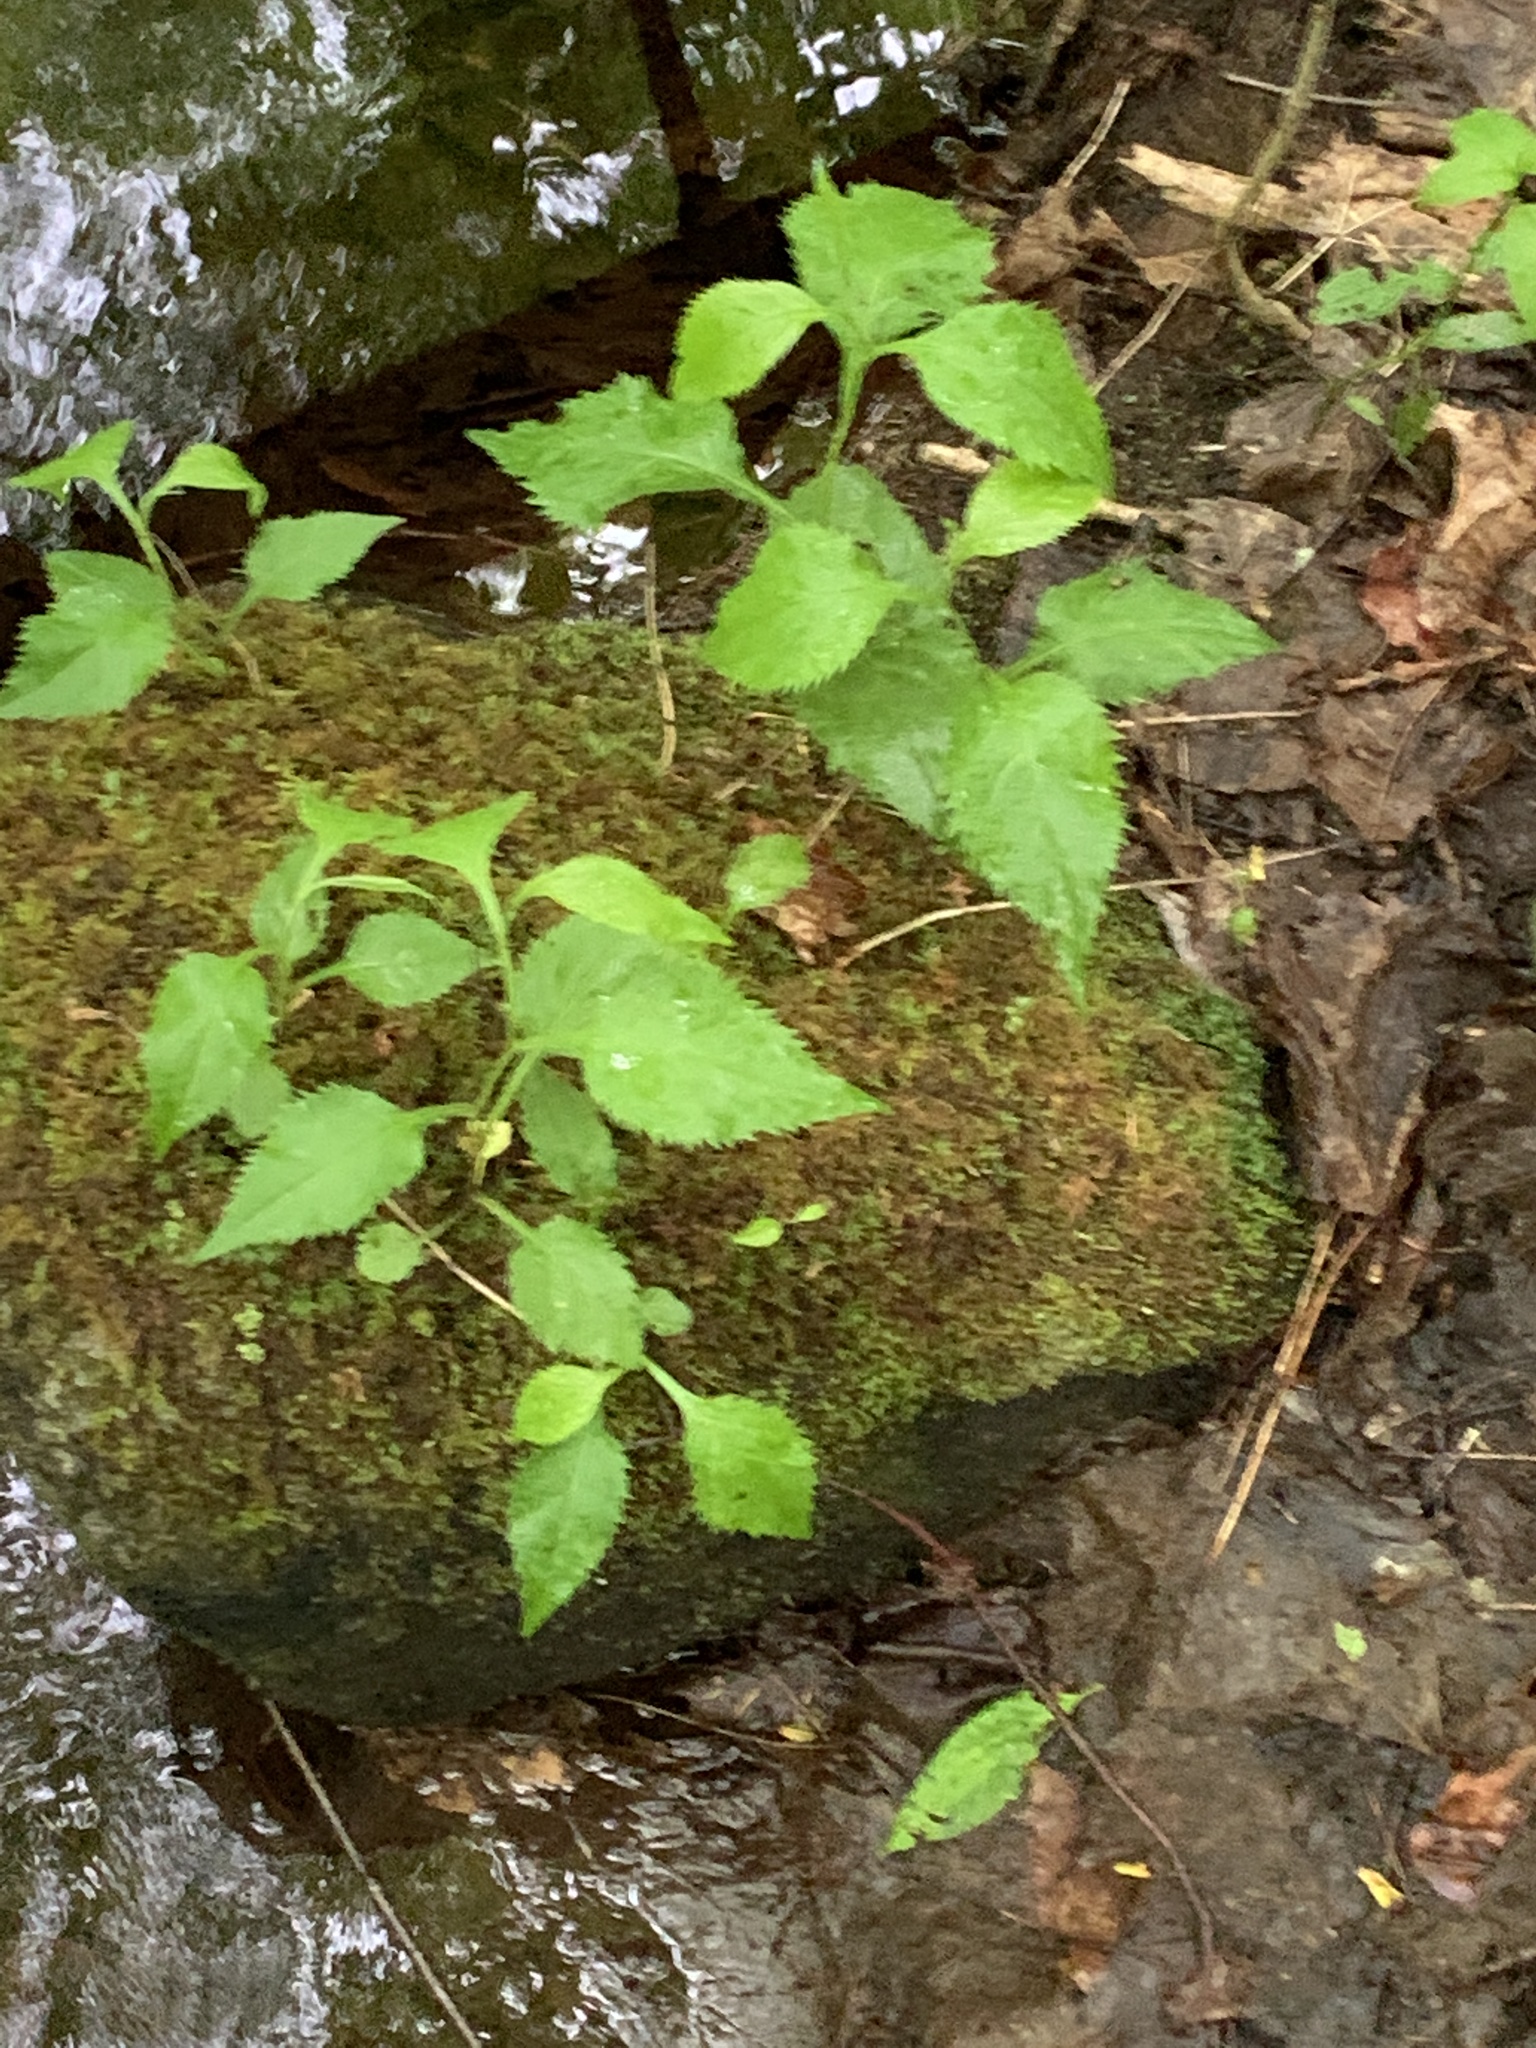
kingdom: Plantae
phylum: Tracheophyta
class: Magnoliopsida
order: Asterales
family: Asteraceae
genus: Solidago
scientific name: Solidago flexicaulis
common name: Zig-zag goldenrod
